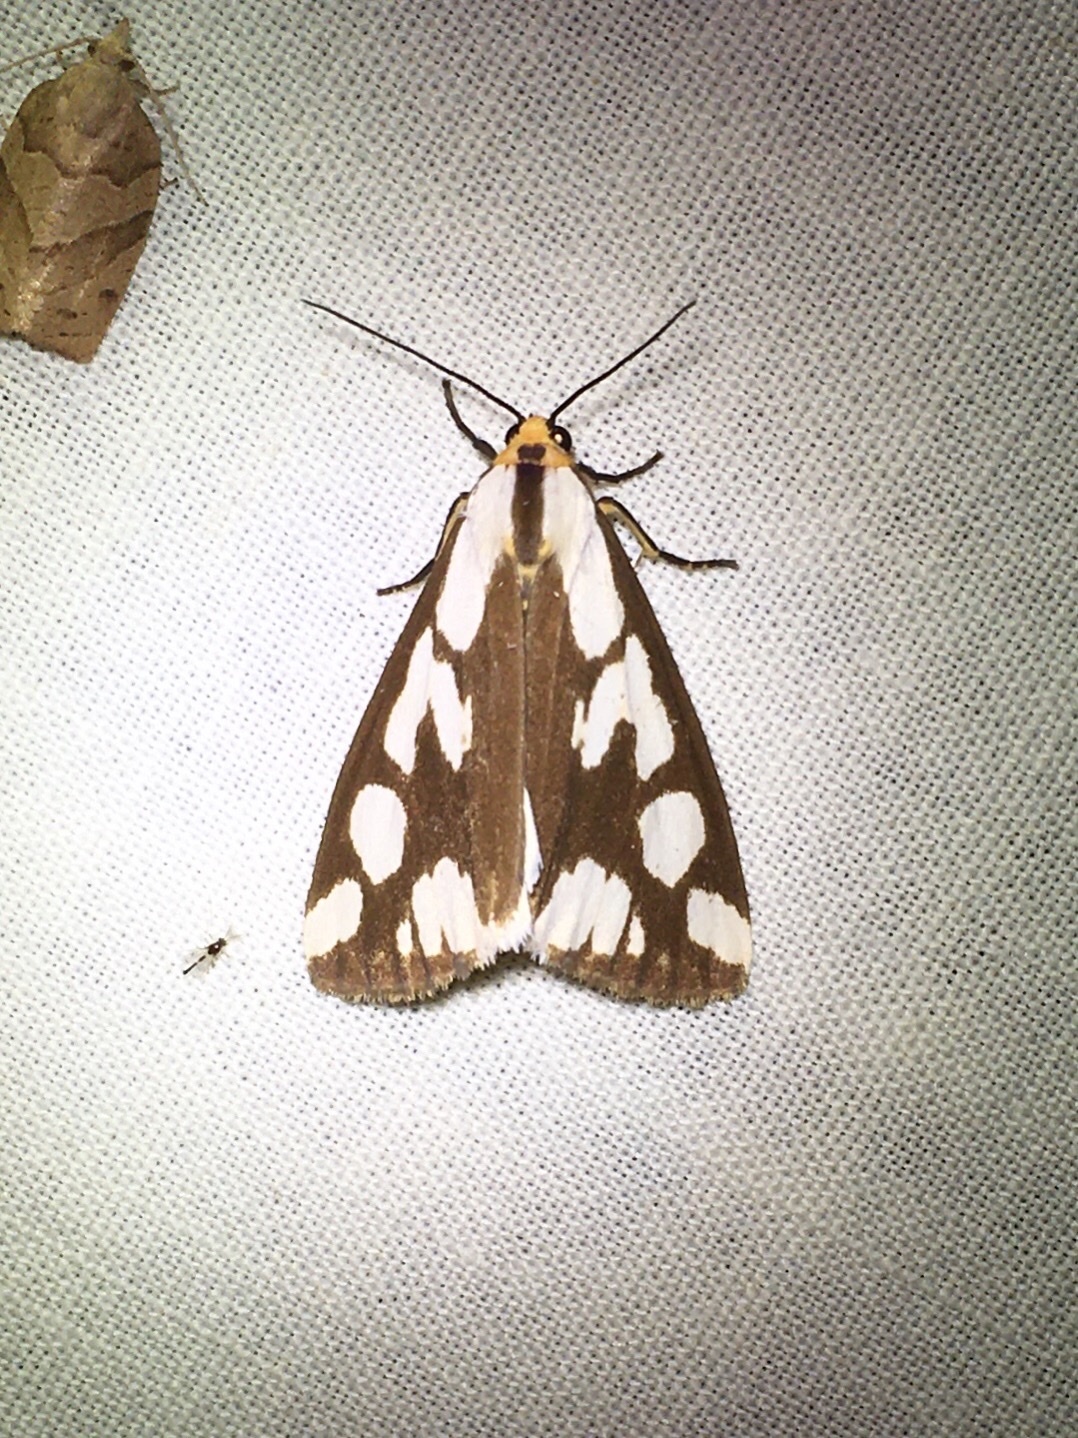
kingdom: Animalia
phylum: Arthropoda
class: Insecta
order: Lepidoptera
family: Erebidae
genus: Haploa
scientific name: Haploa confusa
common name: Confused haploa moth
